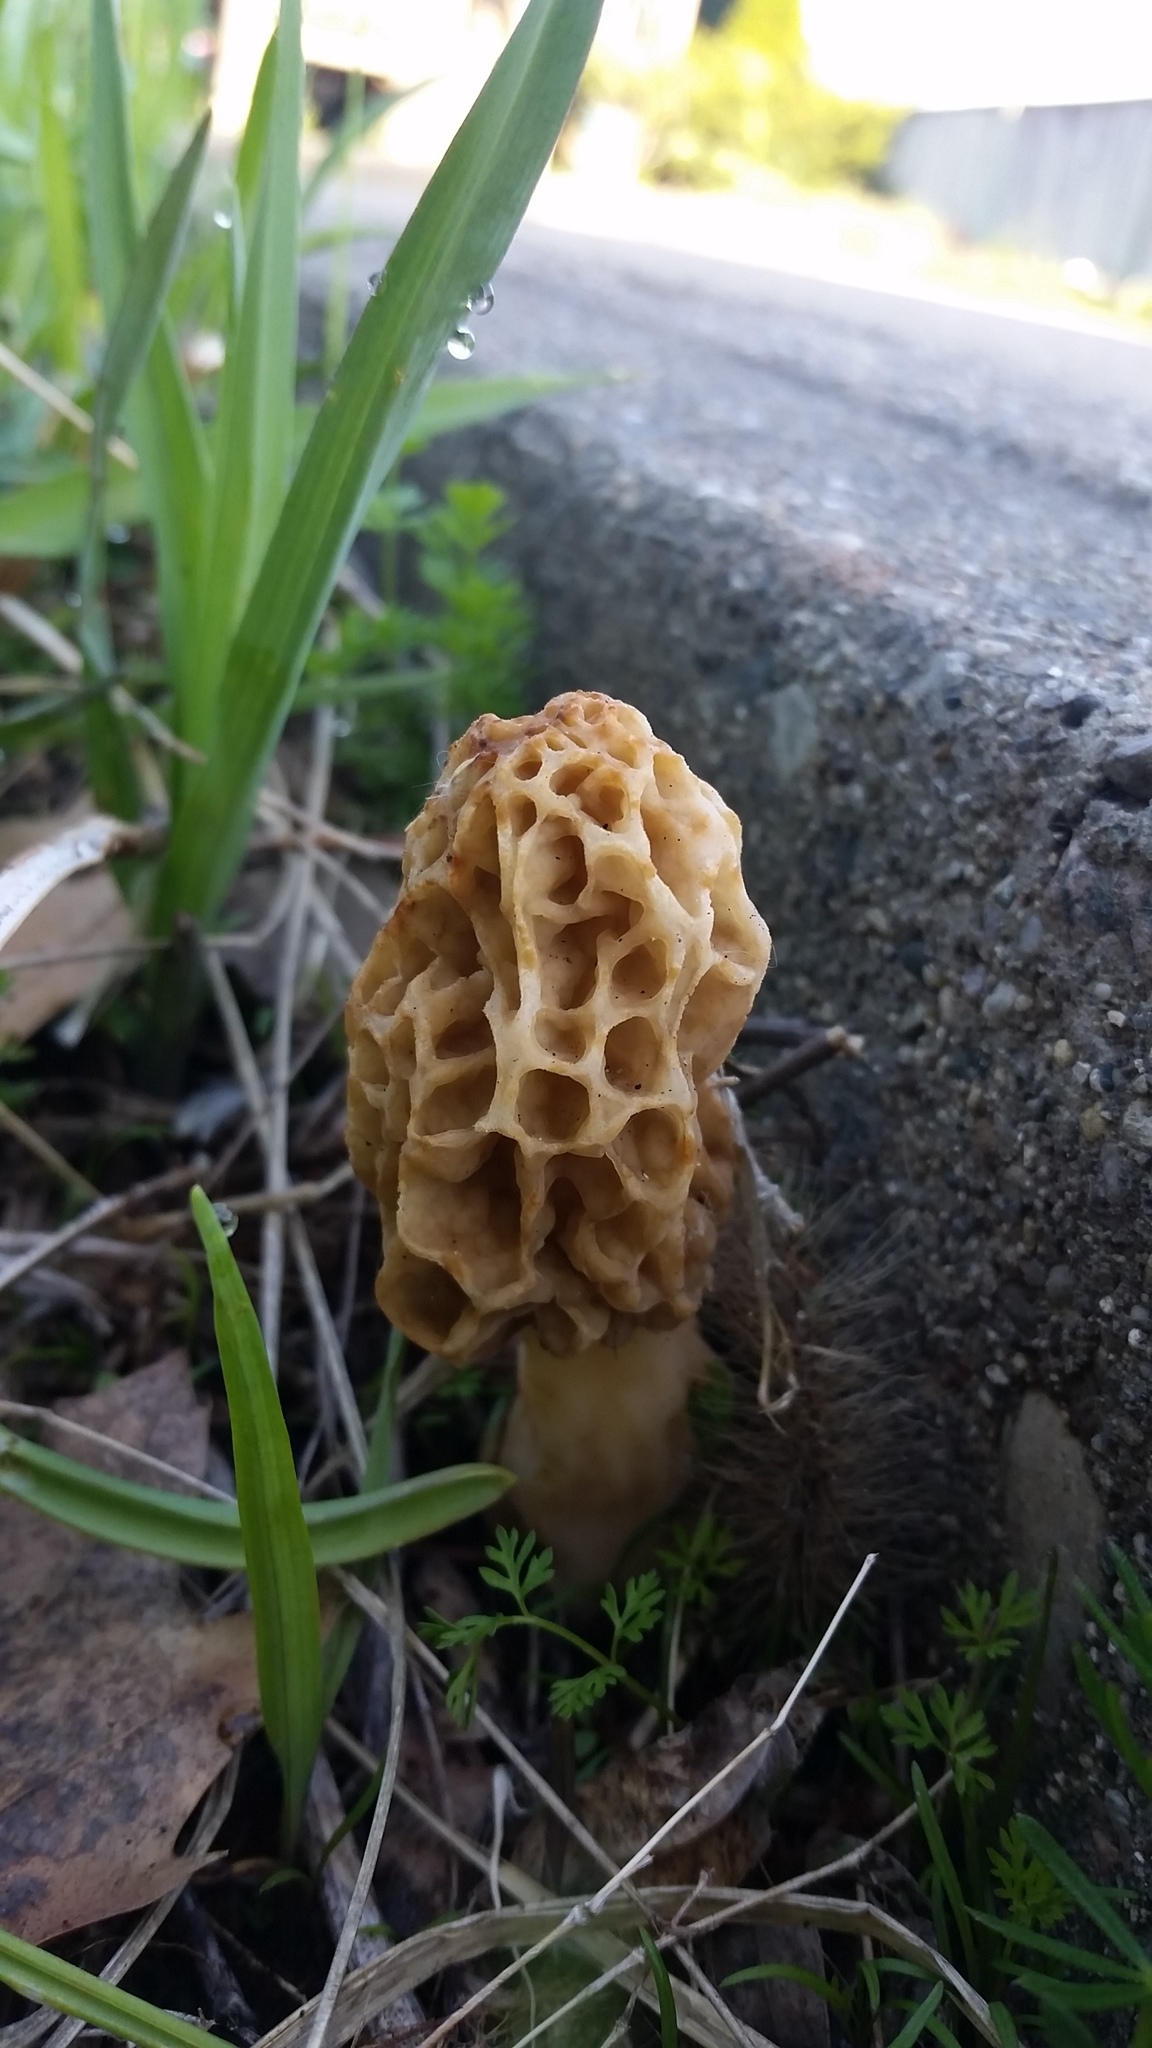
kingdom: Fungi
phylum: Ascomycota
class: Pezizomycetes
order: Pezizales
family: Morchellaceae
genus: Morchella
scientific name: Morchella americana
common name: White morel
